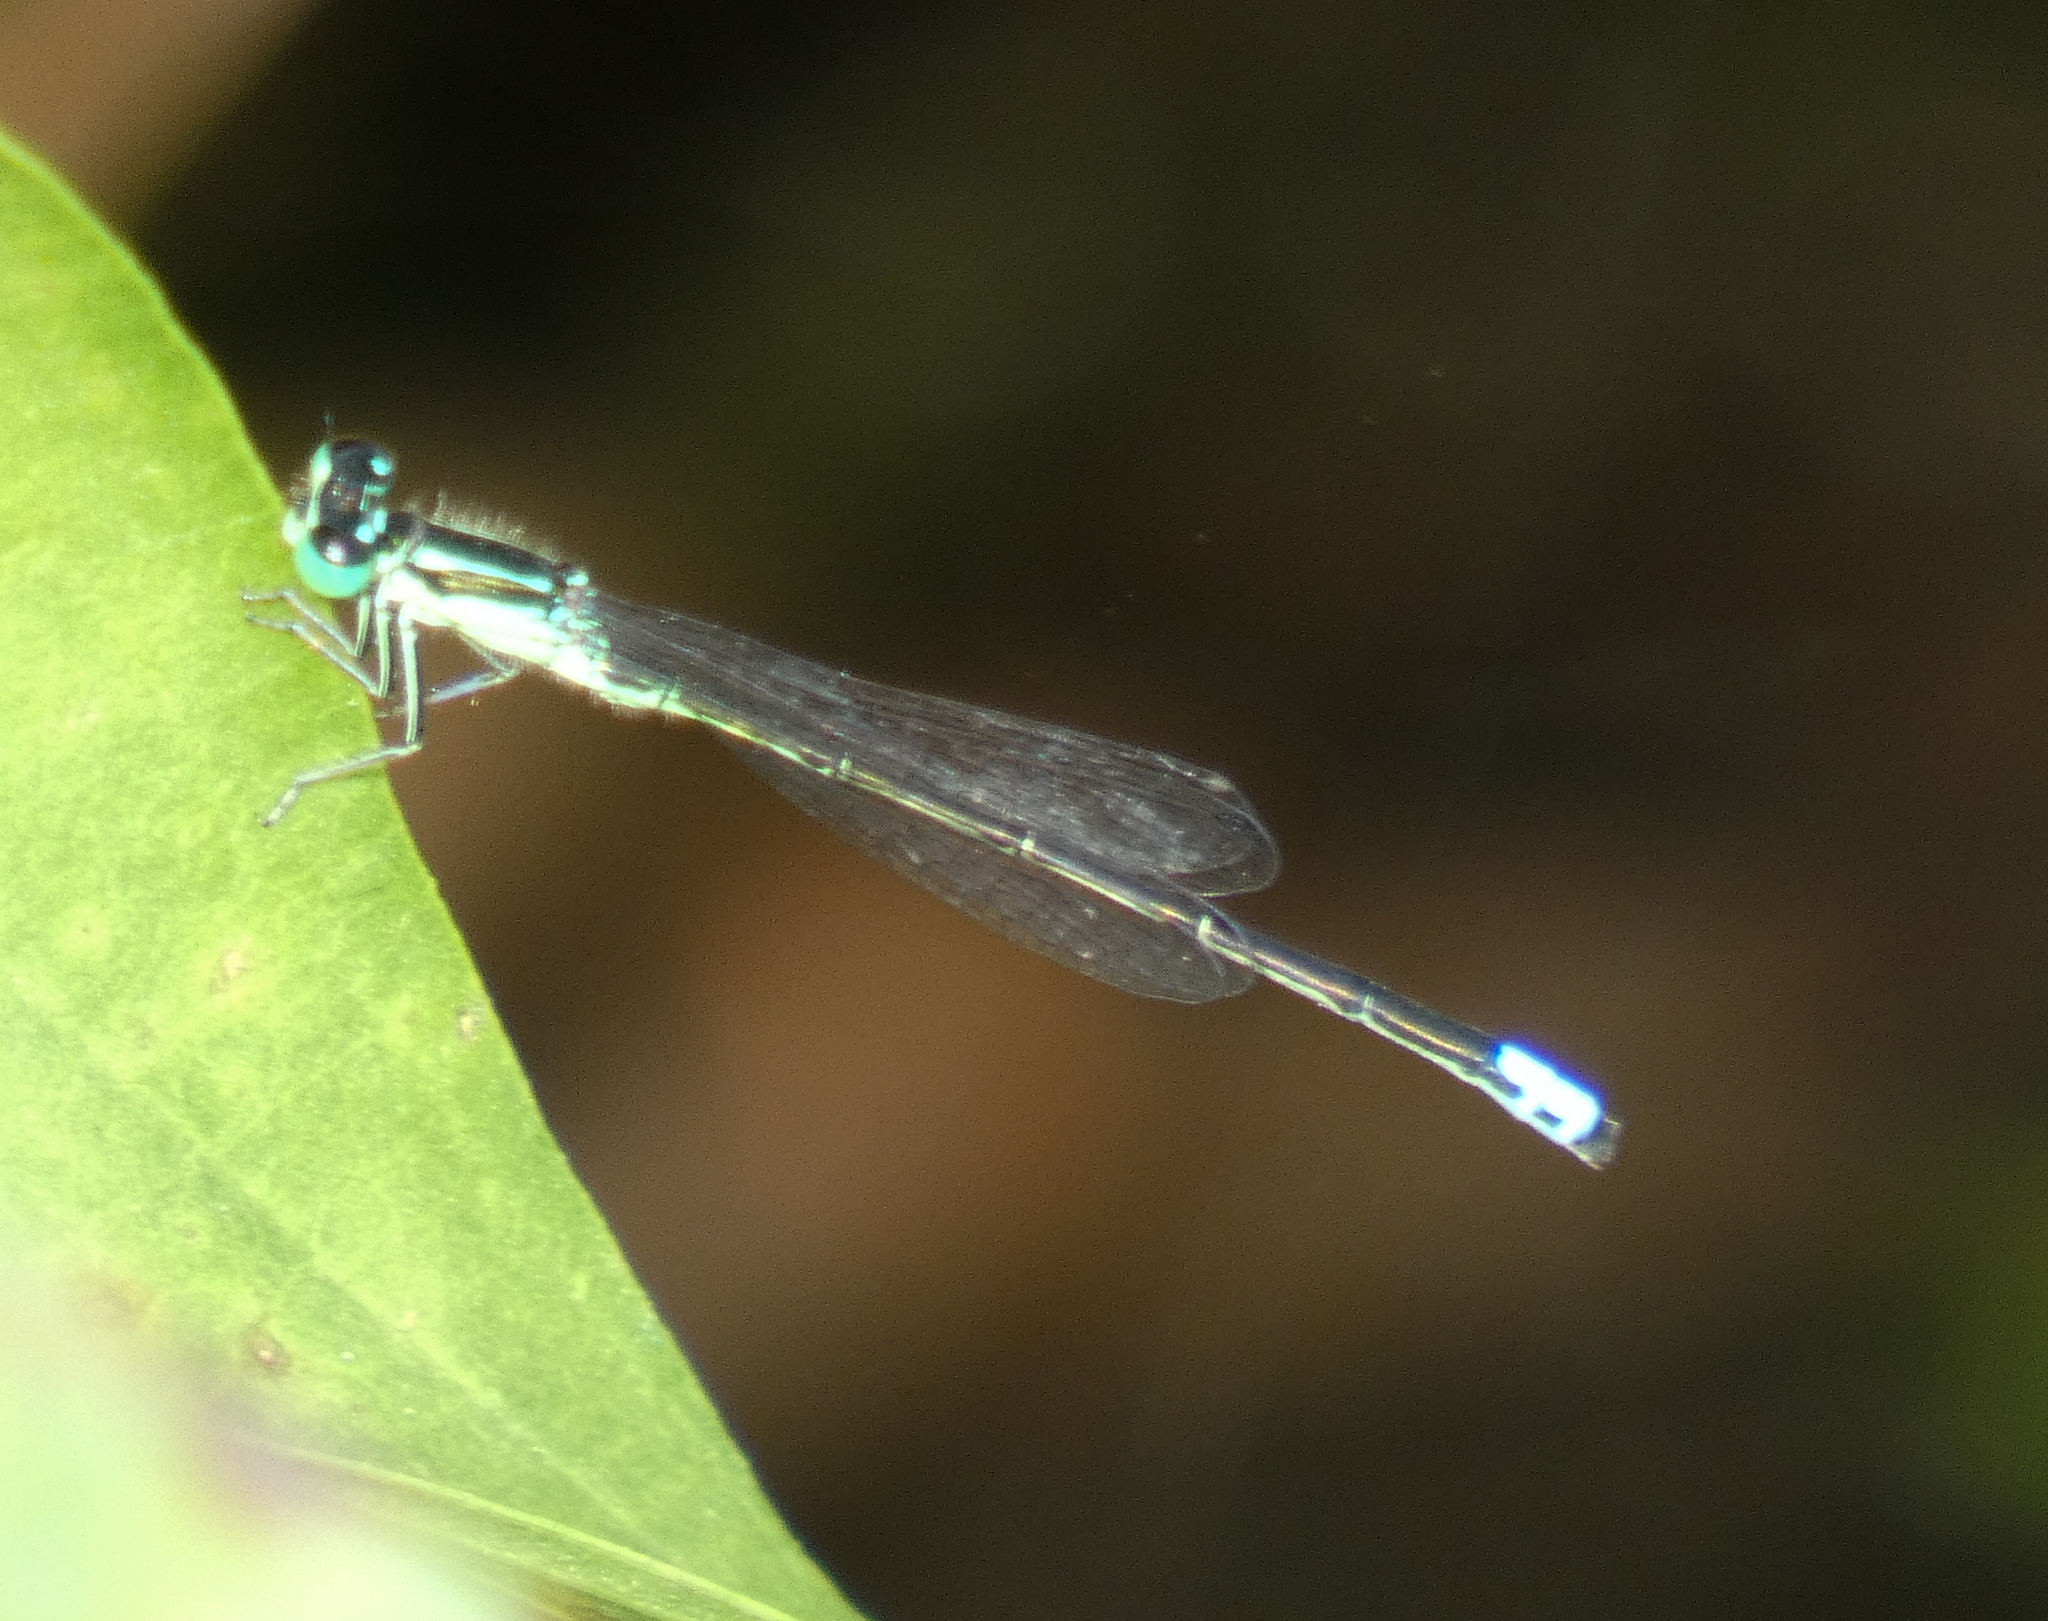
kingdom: Animalia
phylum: Arthropoda
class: Insecta
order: Odonata
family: Coenagrionidae
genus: Ischnura
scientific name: Ischnura verticalis
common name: Eastern forktail
